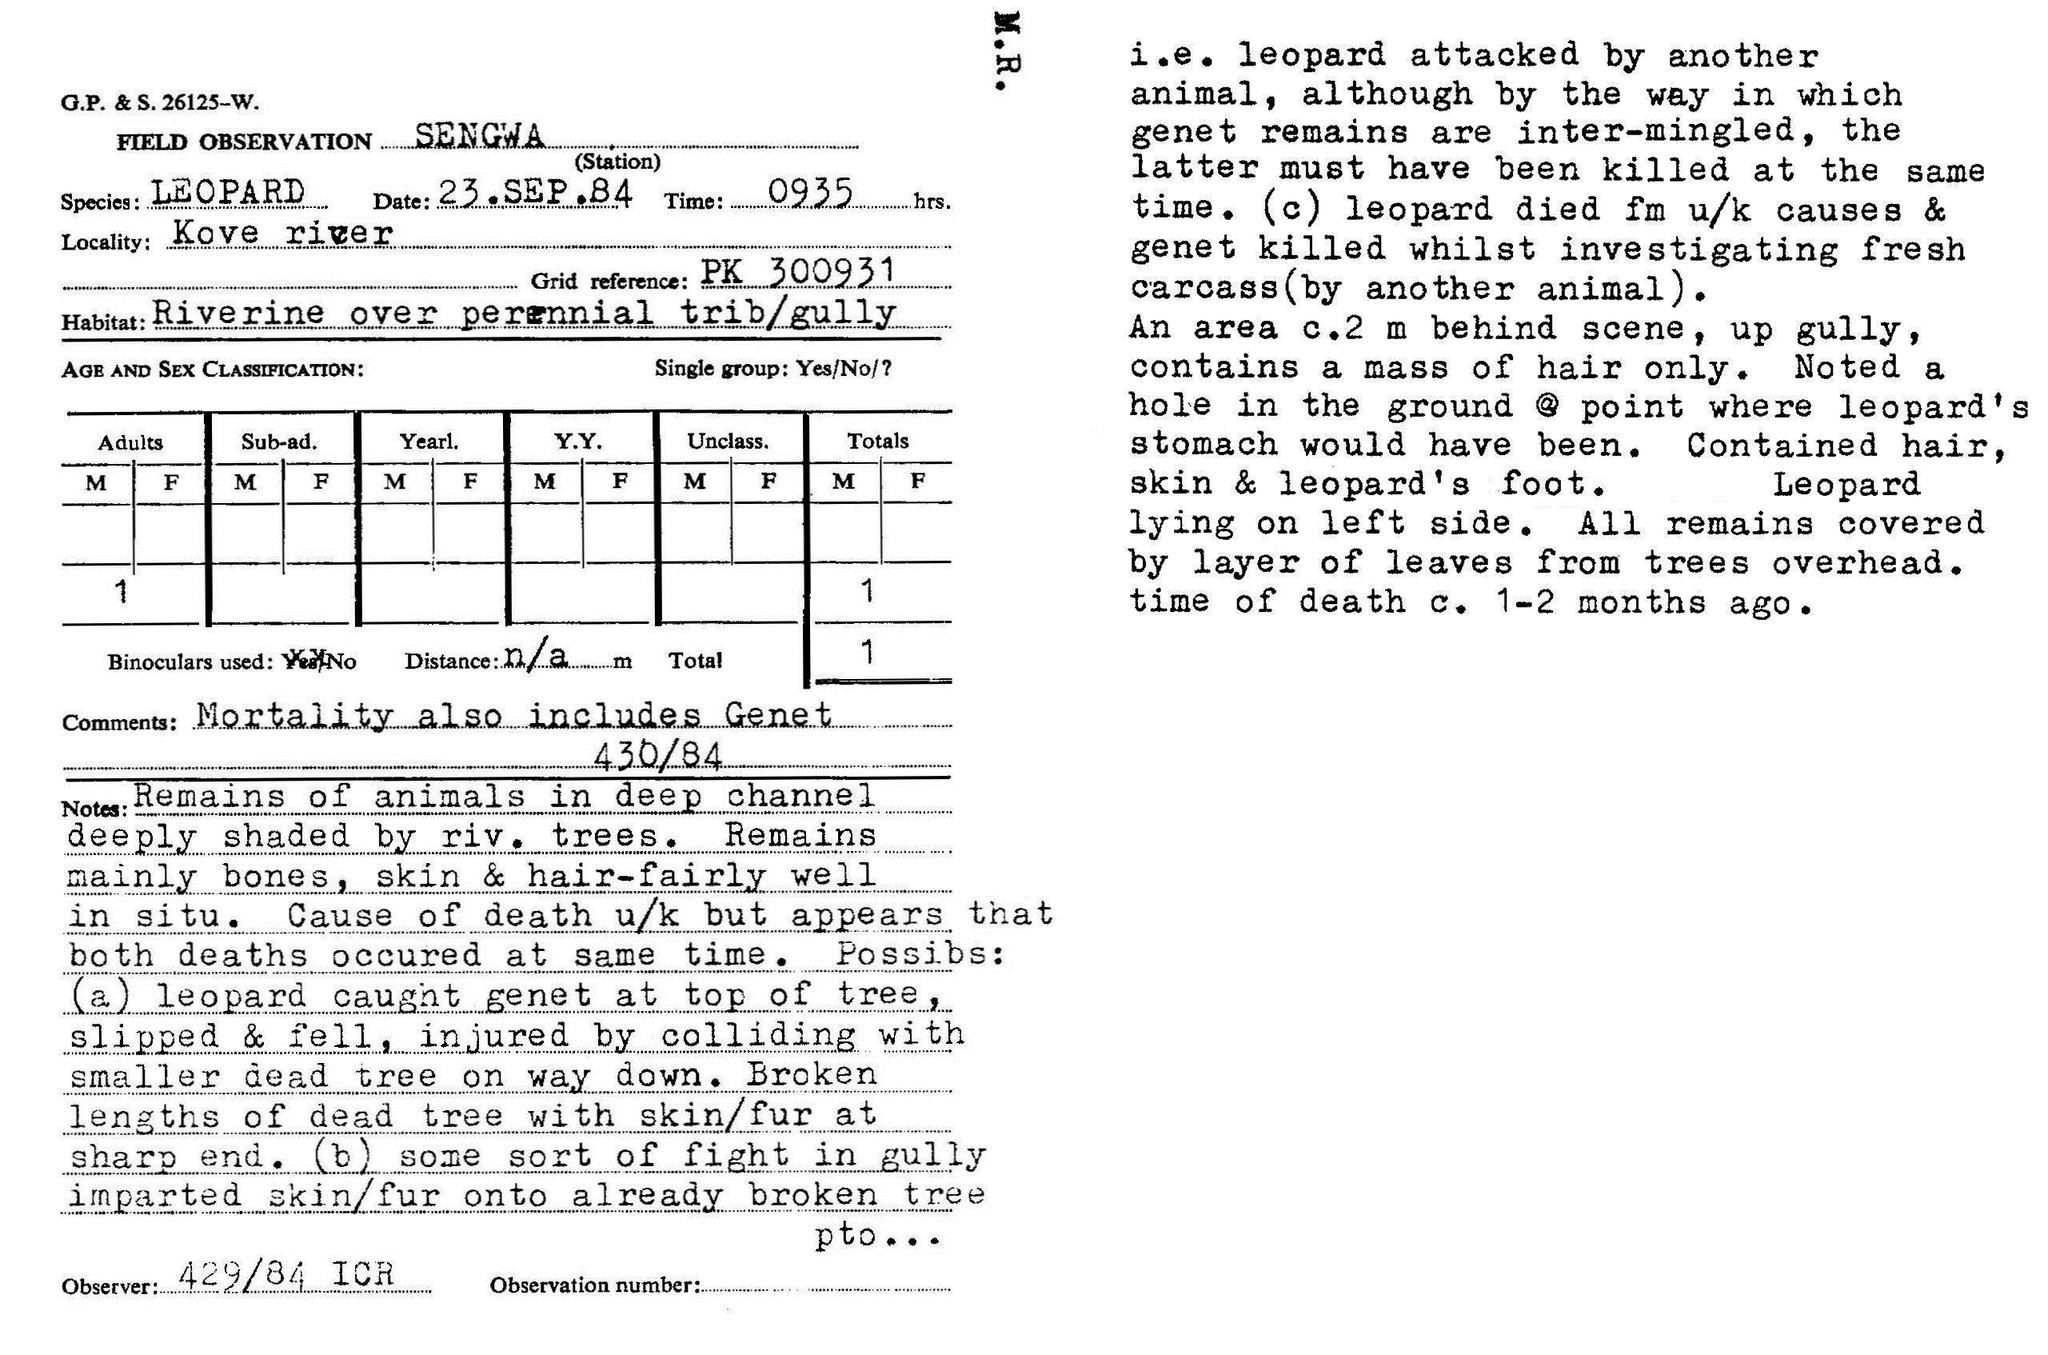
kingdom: Animalia
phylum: Chordata
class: Mammalia
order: Carnivora
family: Felidae
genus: Panthera
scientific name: Panthera pardus
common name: Leopard
